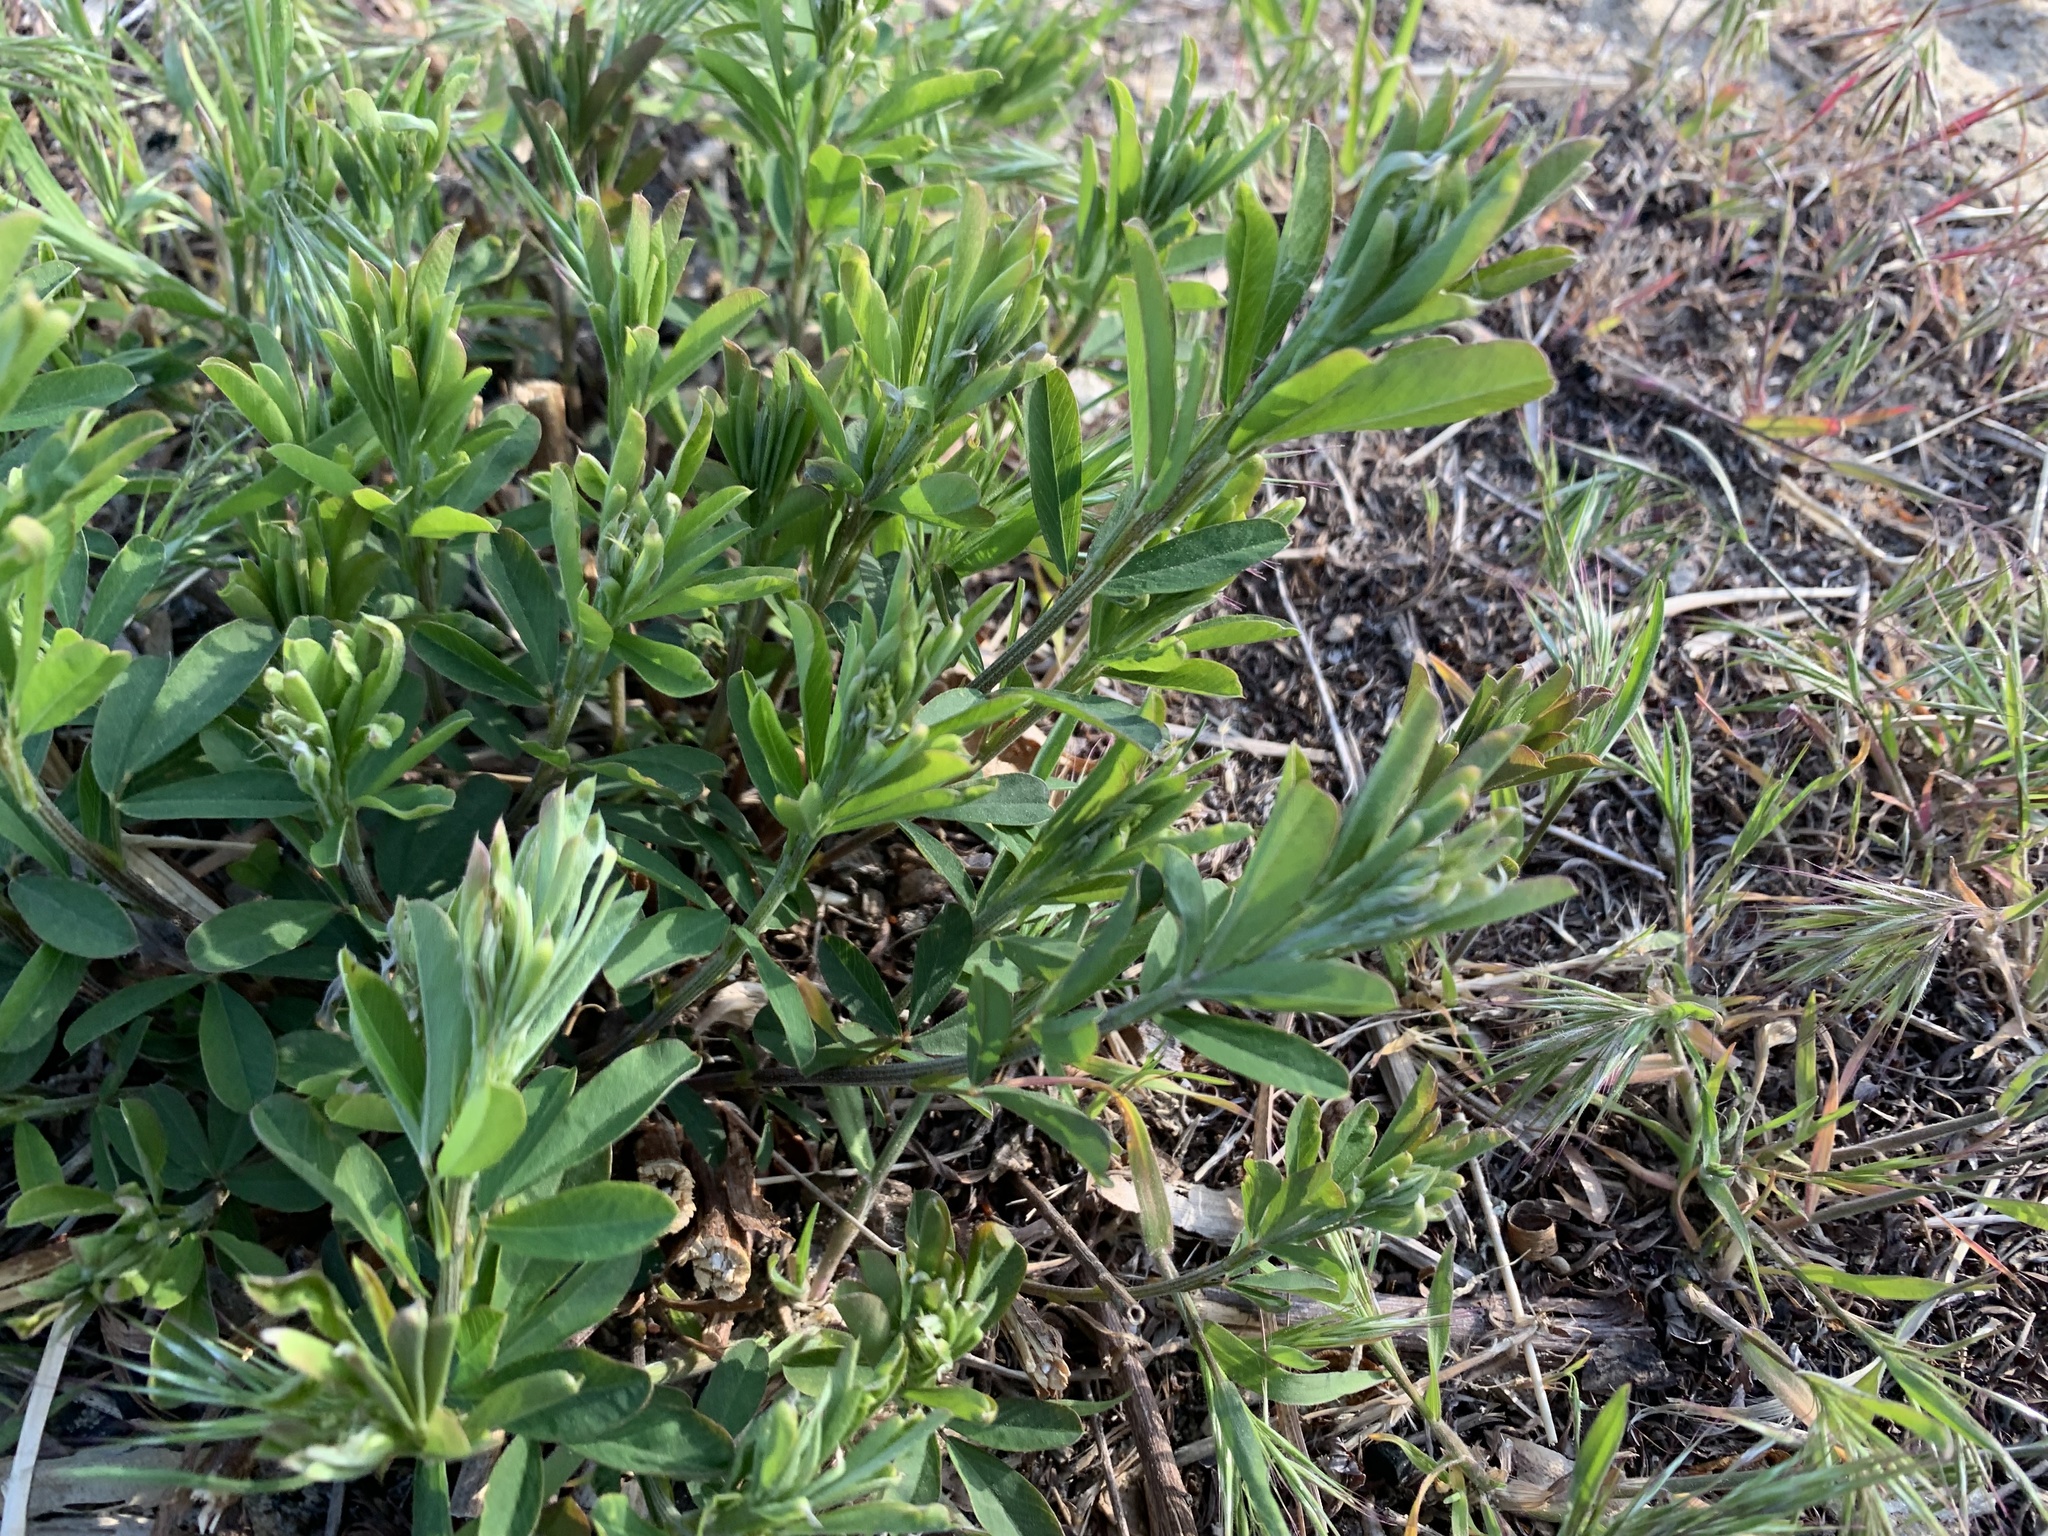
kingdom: Plantae
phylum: Tracheophyta
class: Magnoliopsida
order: Fabales
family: Fabaceae
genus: Lespedeza
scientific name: Lespedeza cuneata
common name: Chinese bush-clover
